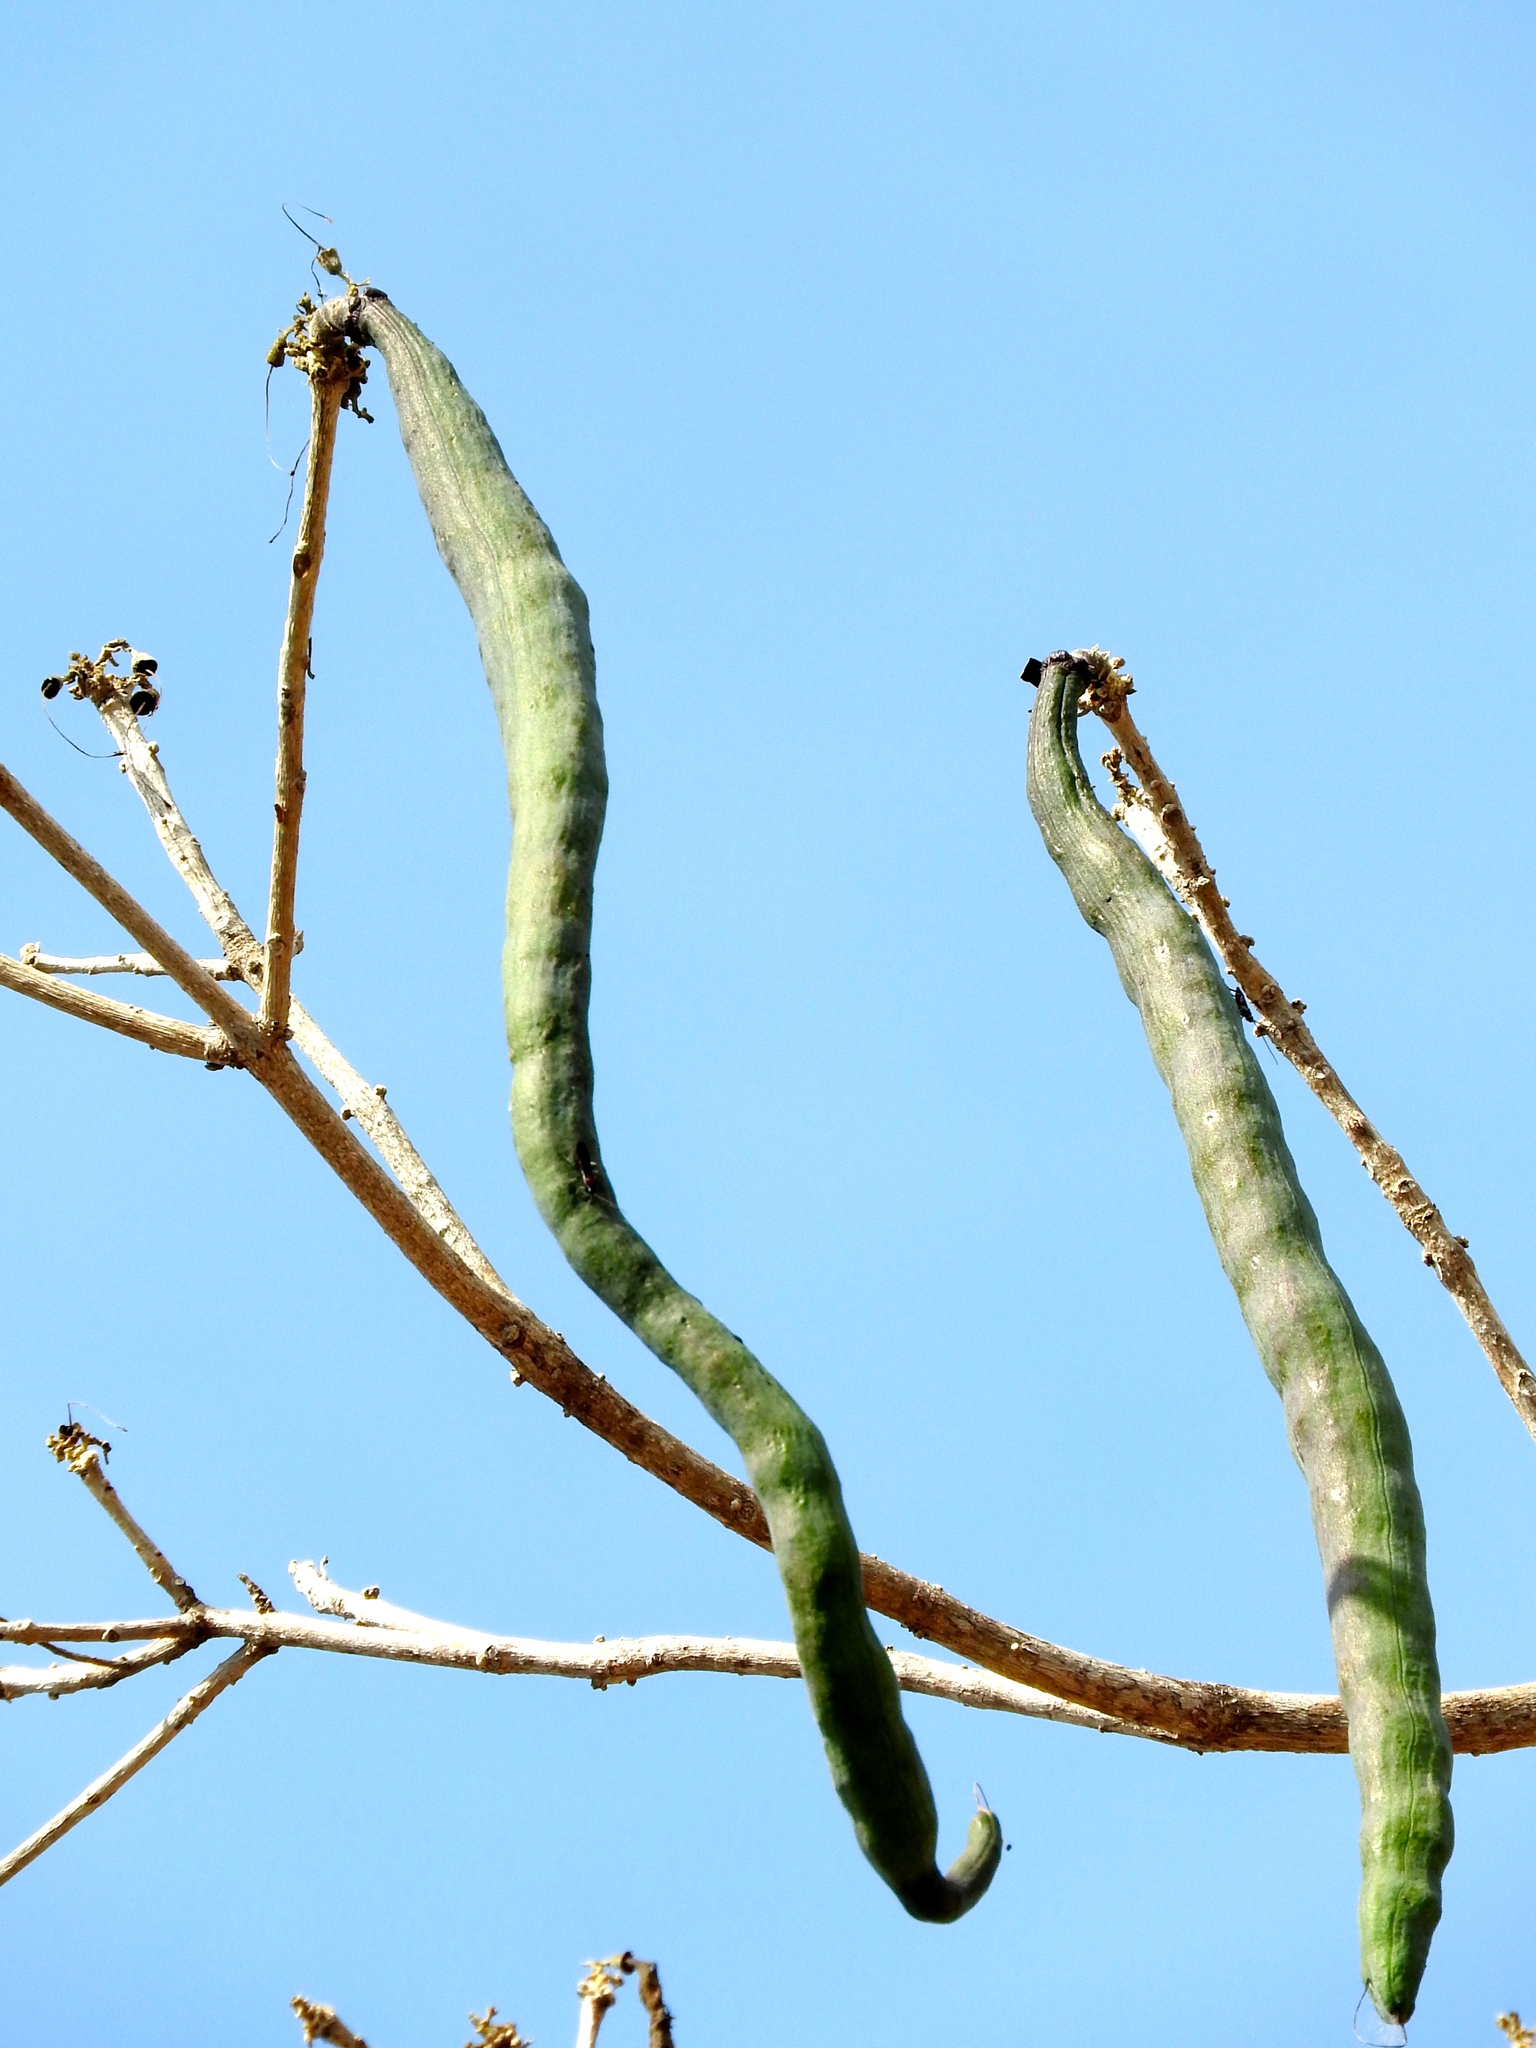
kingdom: Plantae
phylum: Tracheophyta
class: Magnoliopsida
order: Lamiales
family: Bignoniaceae
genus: Tabebuia
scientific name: Tabebuia rosea
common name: Pink poui
